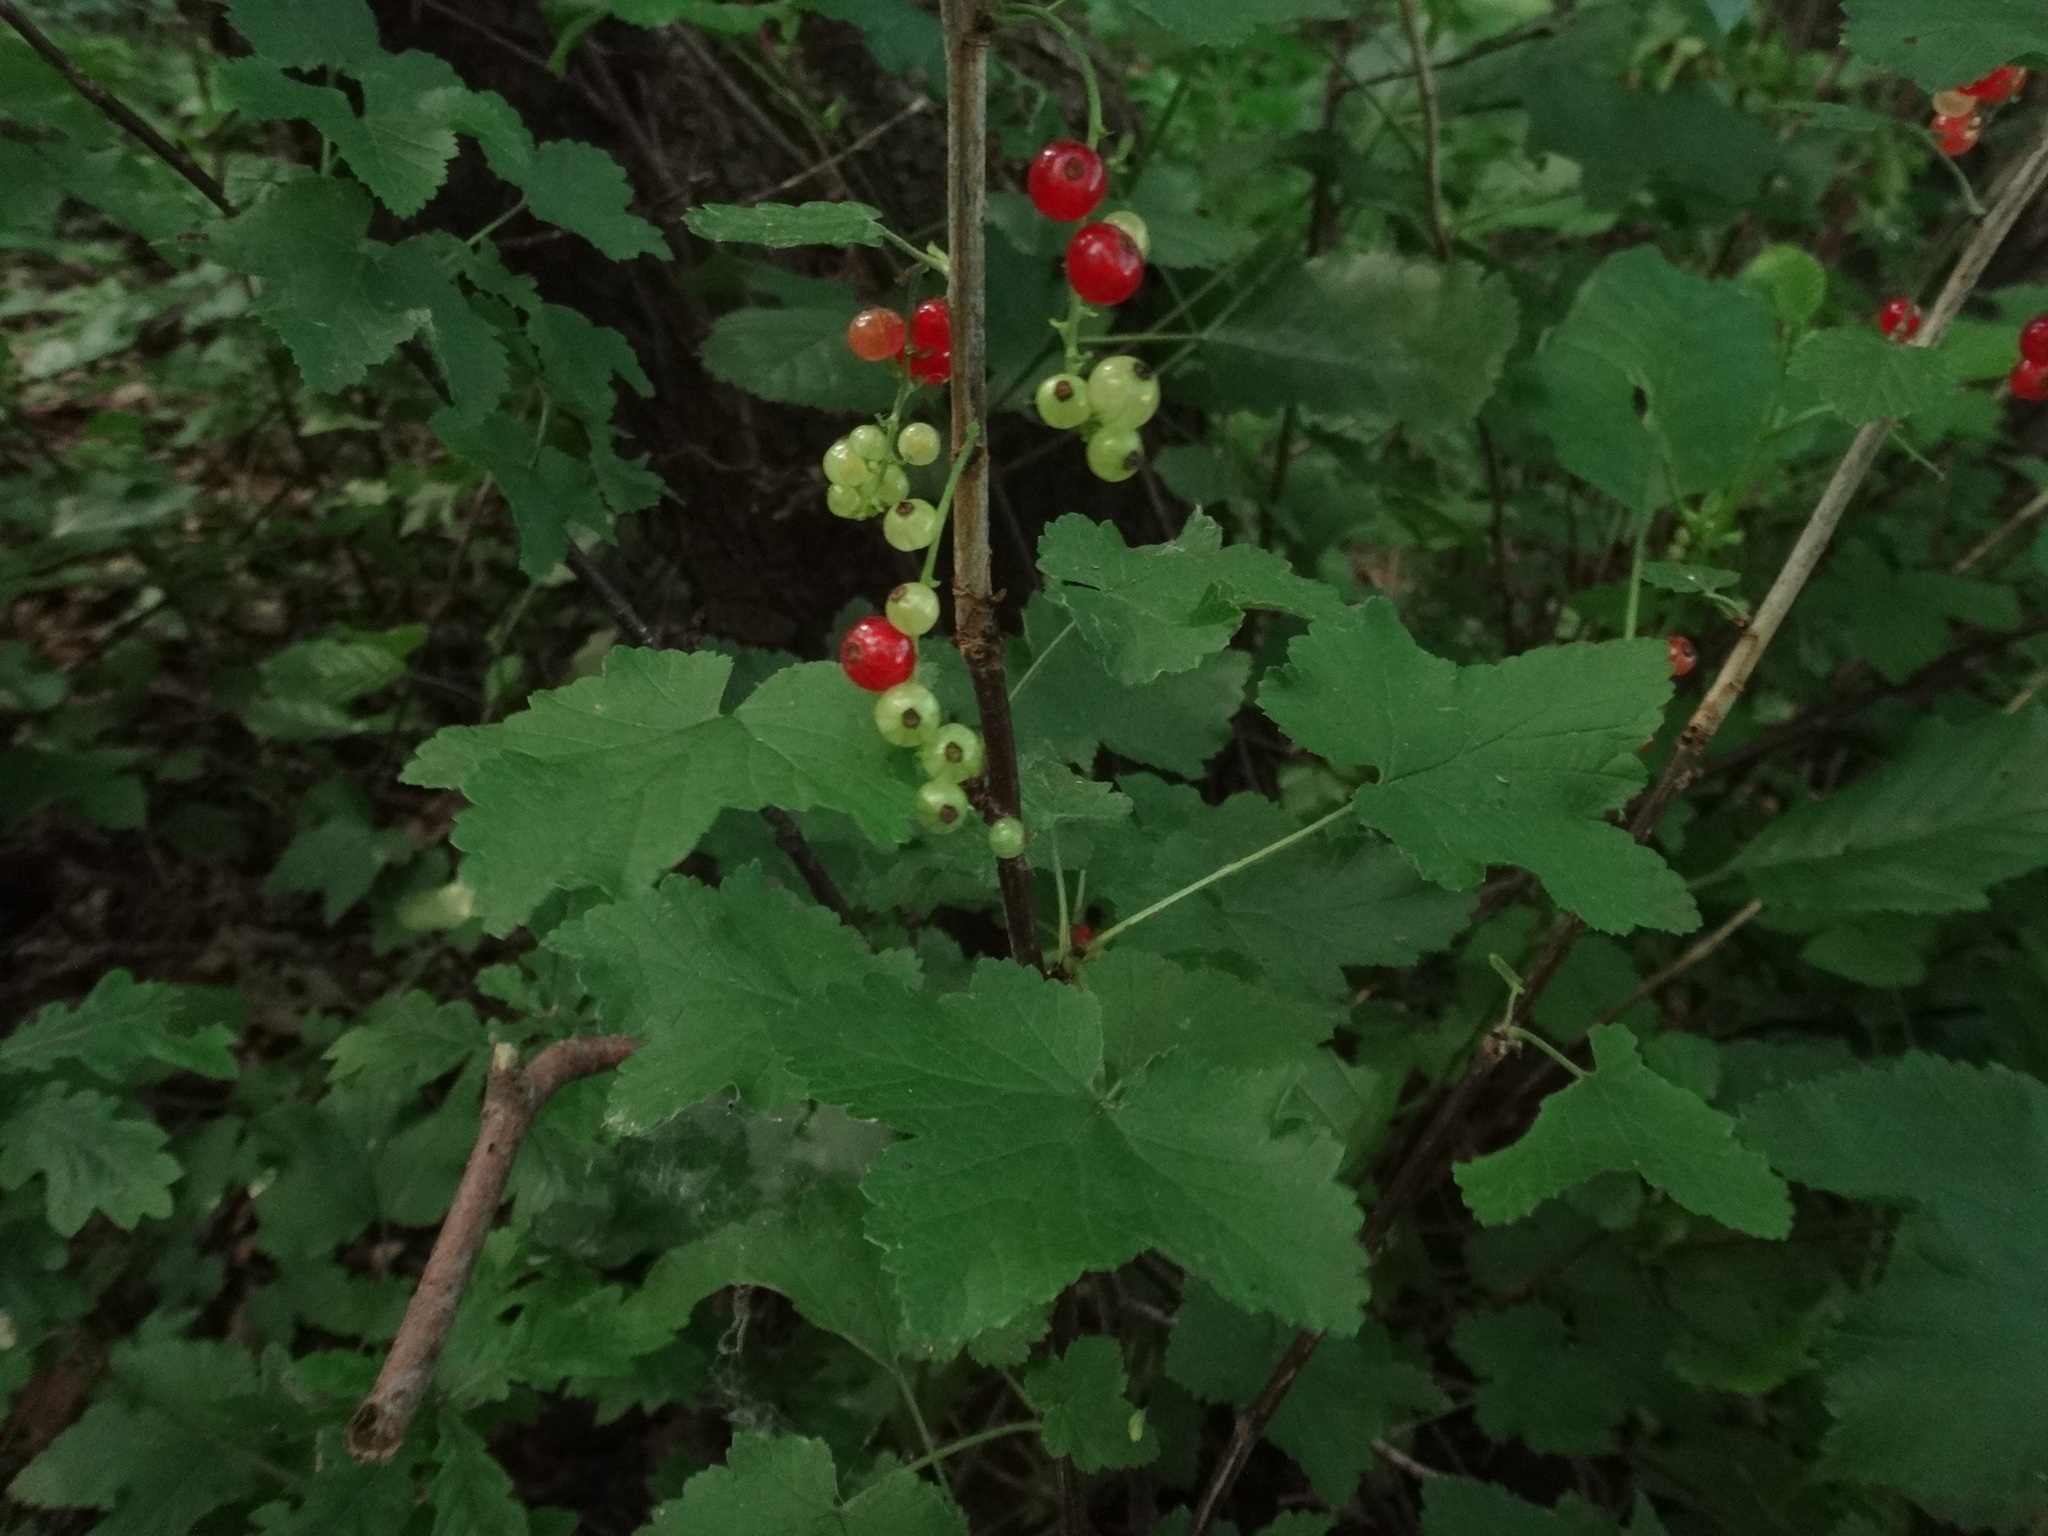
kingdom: Plantae
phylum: Tracheophyta
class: Magnoliopsida
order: Saxifragales
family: Grossulariaceae
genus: Ribes
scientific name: Ribes rubrum
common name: Red currant
